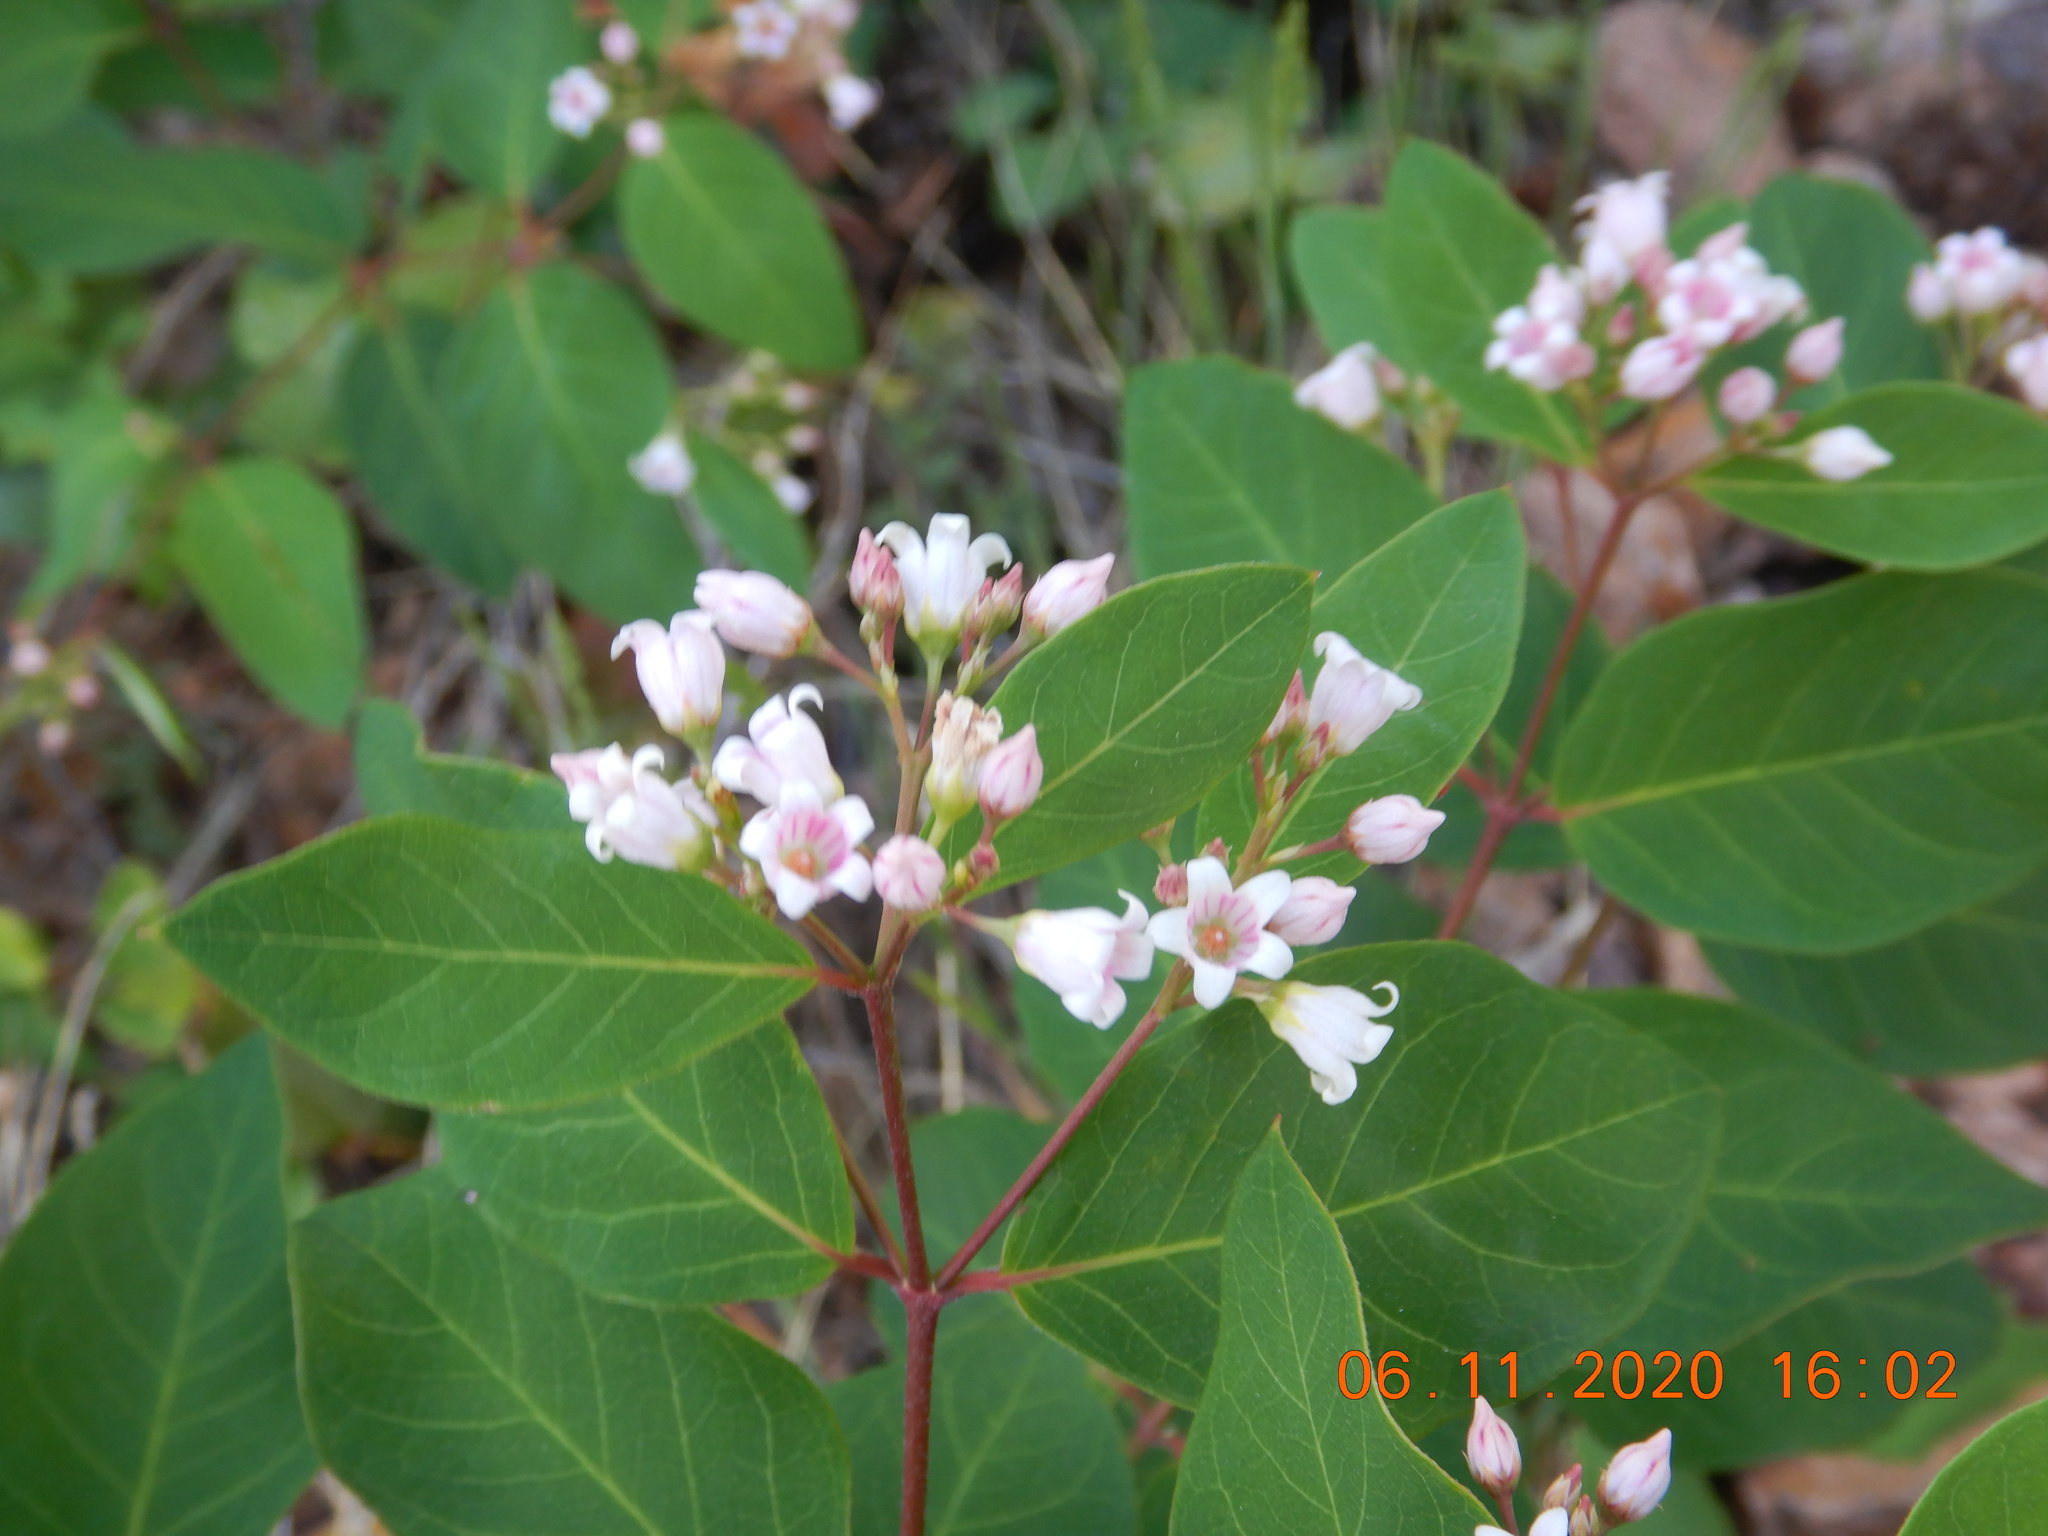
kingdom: Plantae
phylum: Tracheophyta
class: Magnoliopsida
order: Gentianales
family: Apocynaceae
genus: Apocynum
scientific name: Apocynum androsaemifolium
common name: Spreading dogbane
